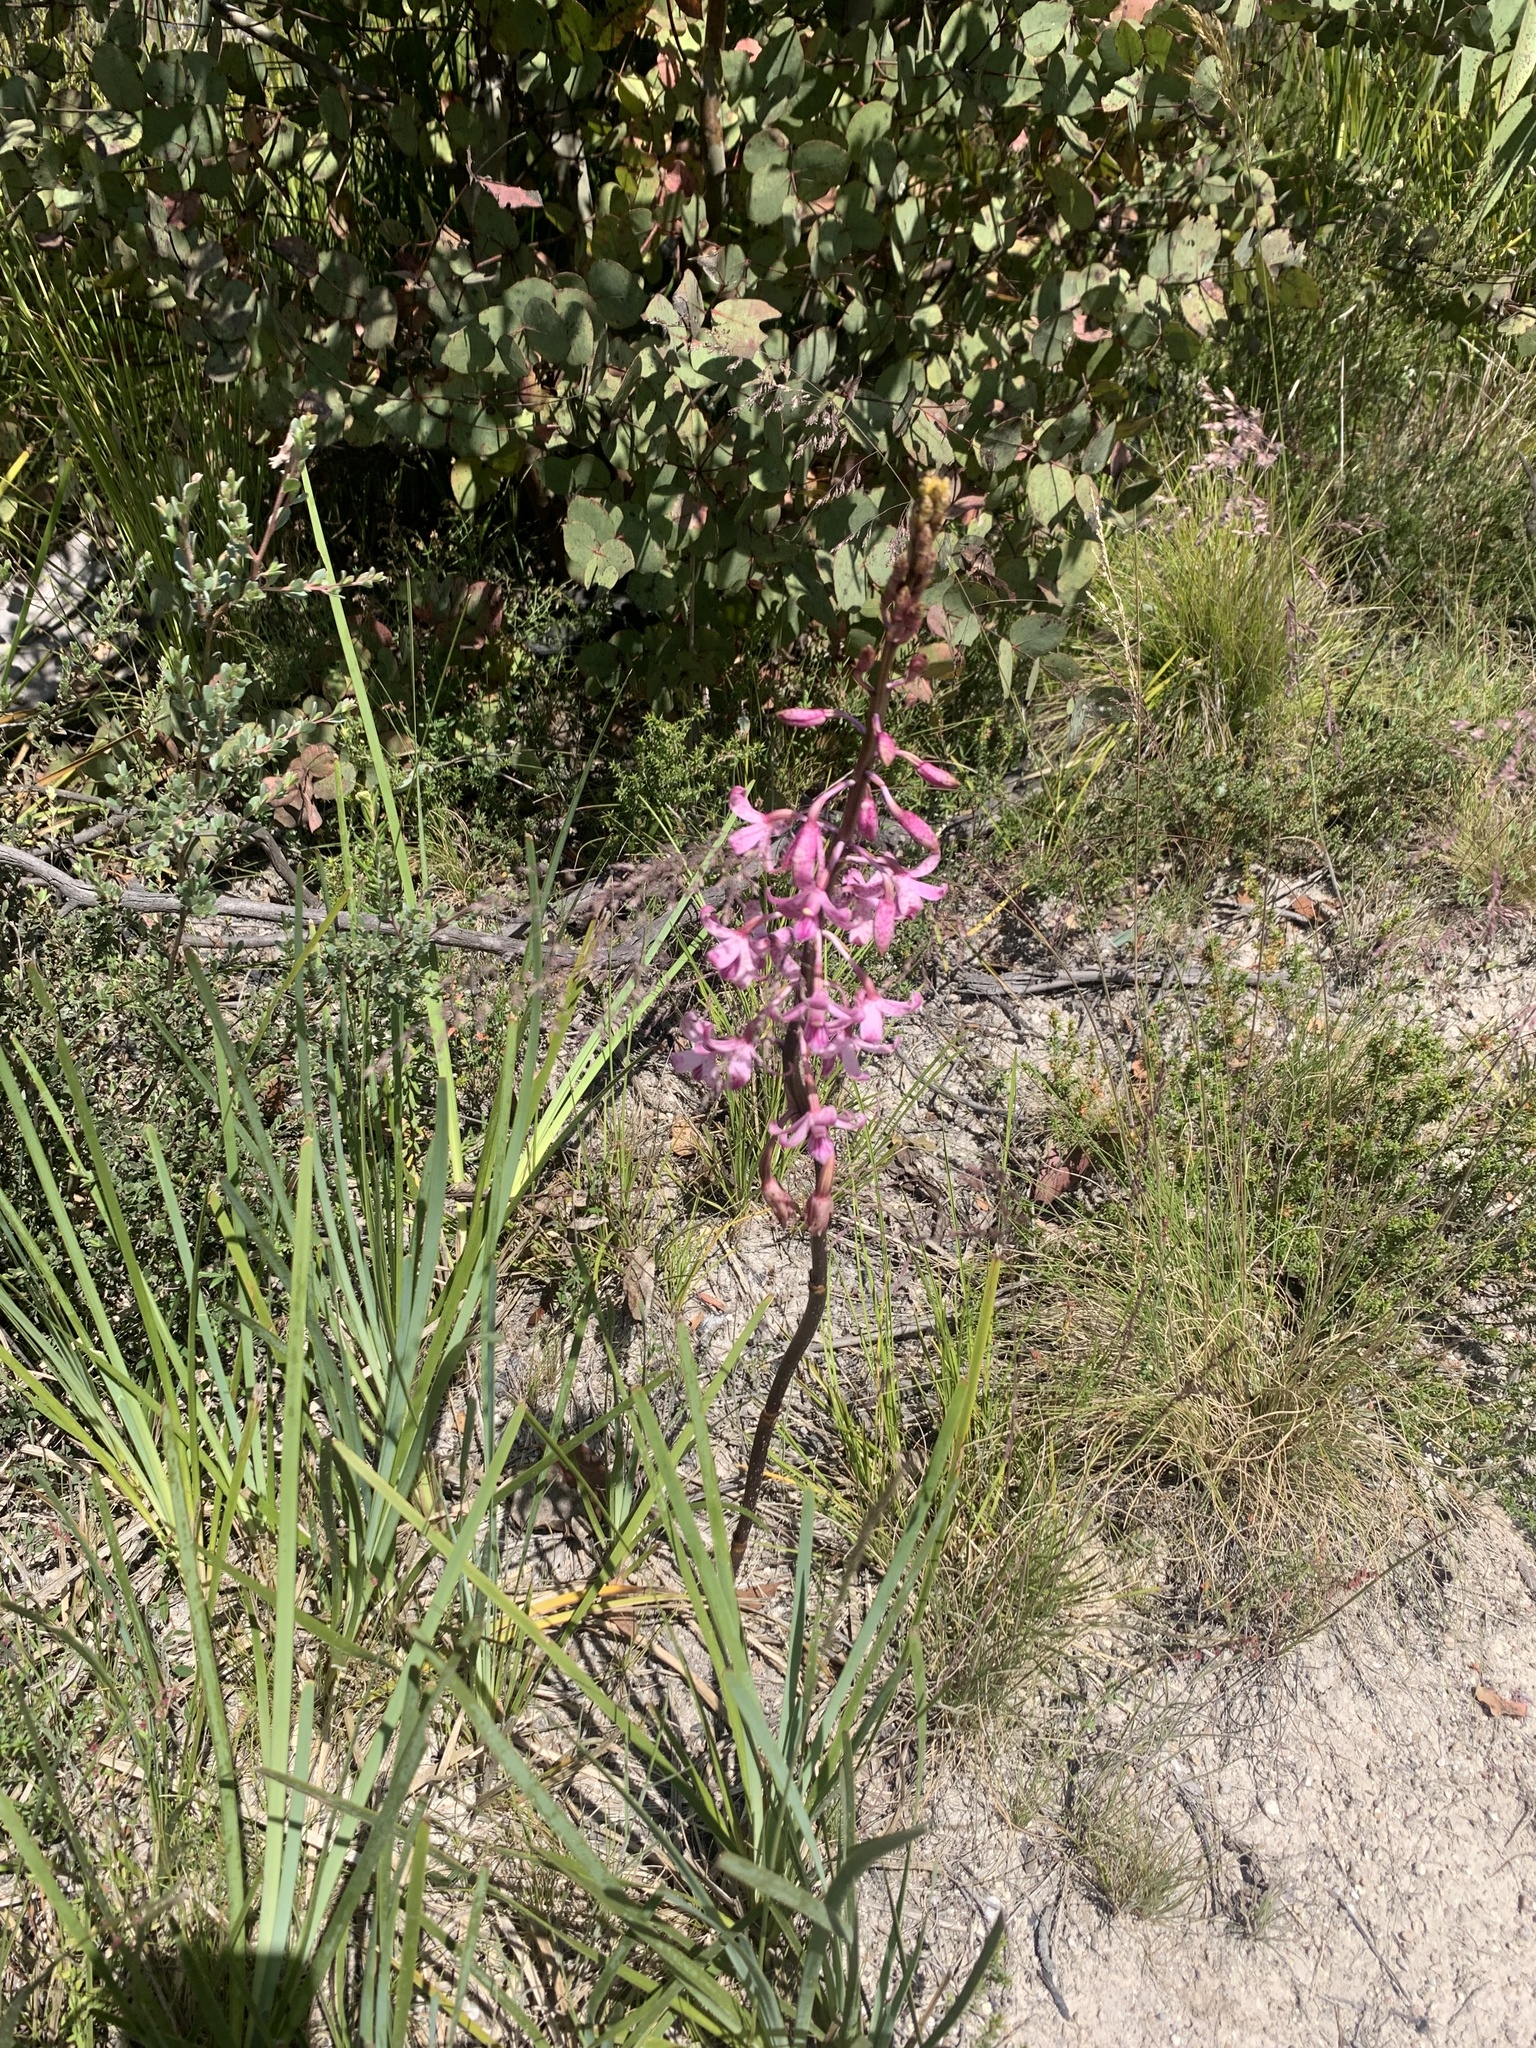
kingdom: Plantae
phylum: Tracheophyta
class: Liliopsida
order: Asparagales
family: Orchidaceae
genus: Dipodium
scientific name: Dipodium roseum
